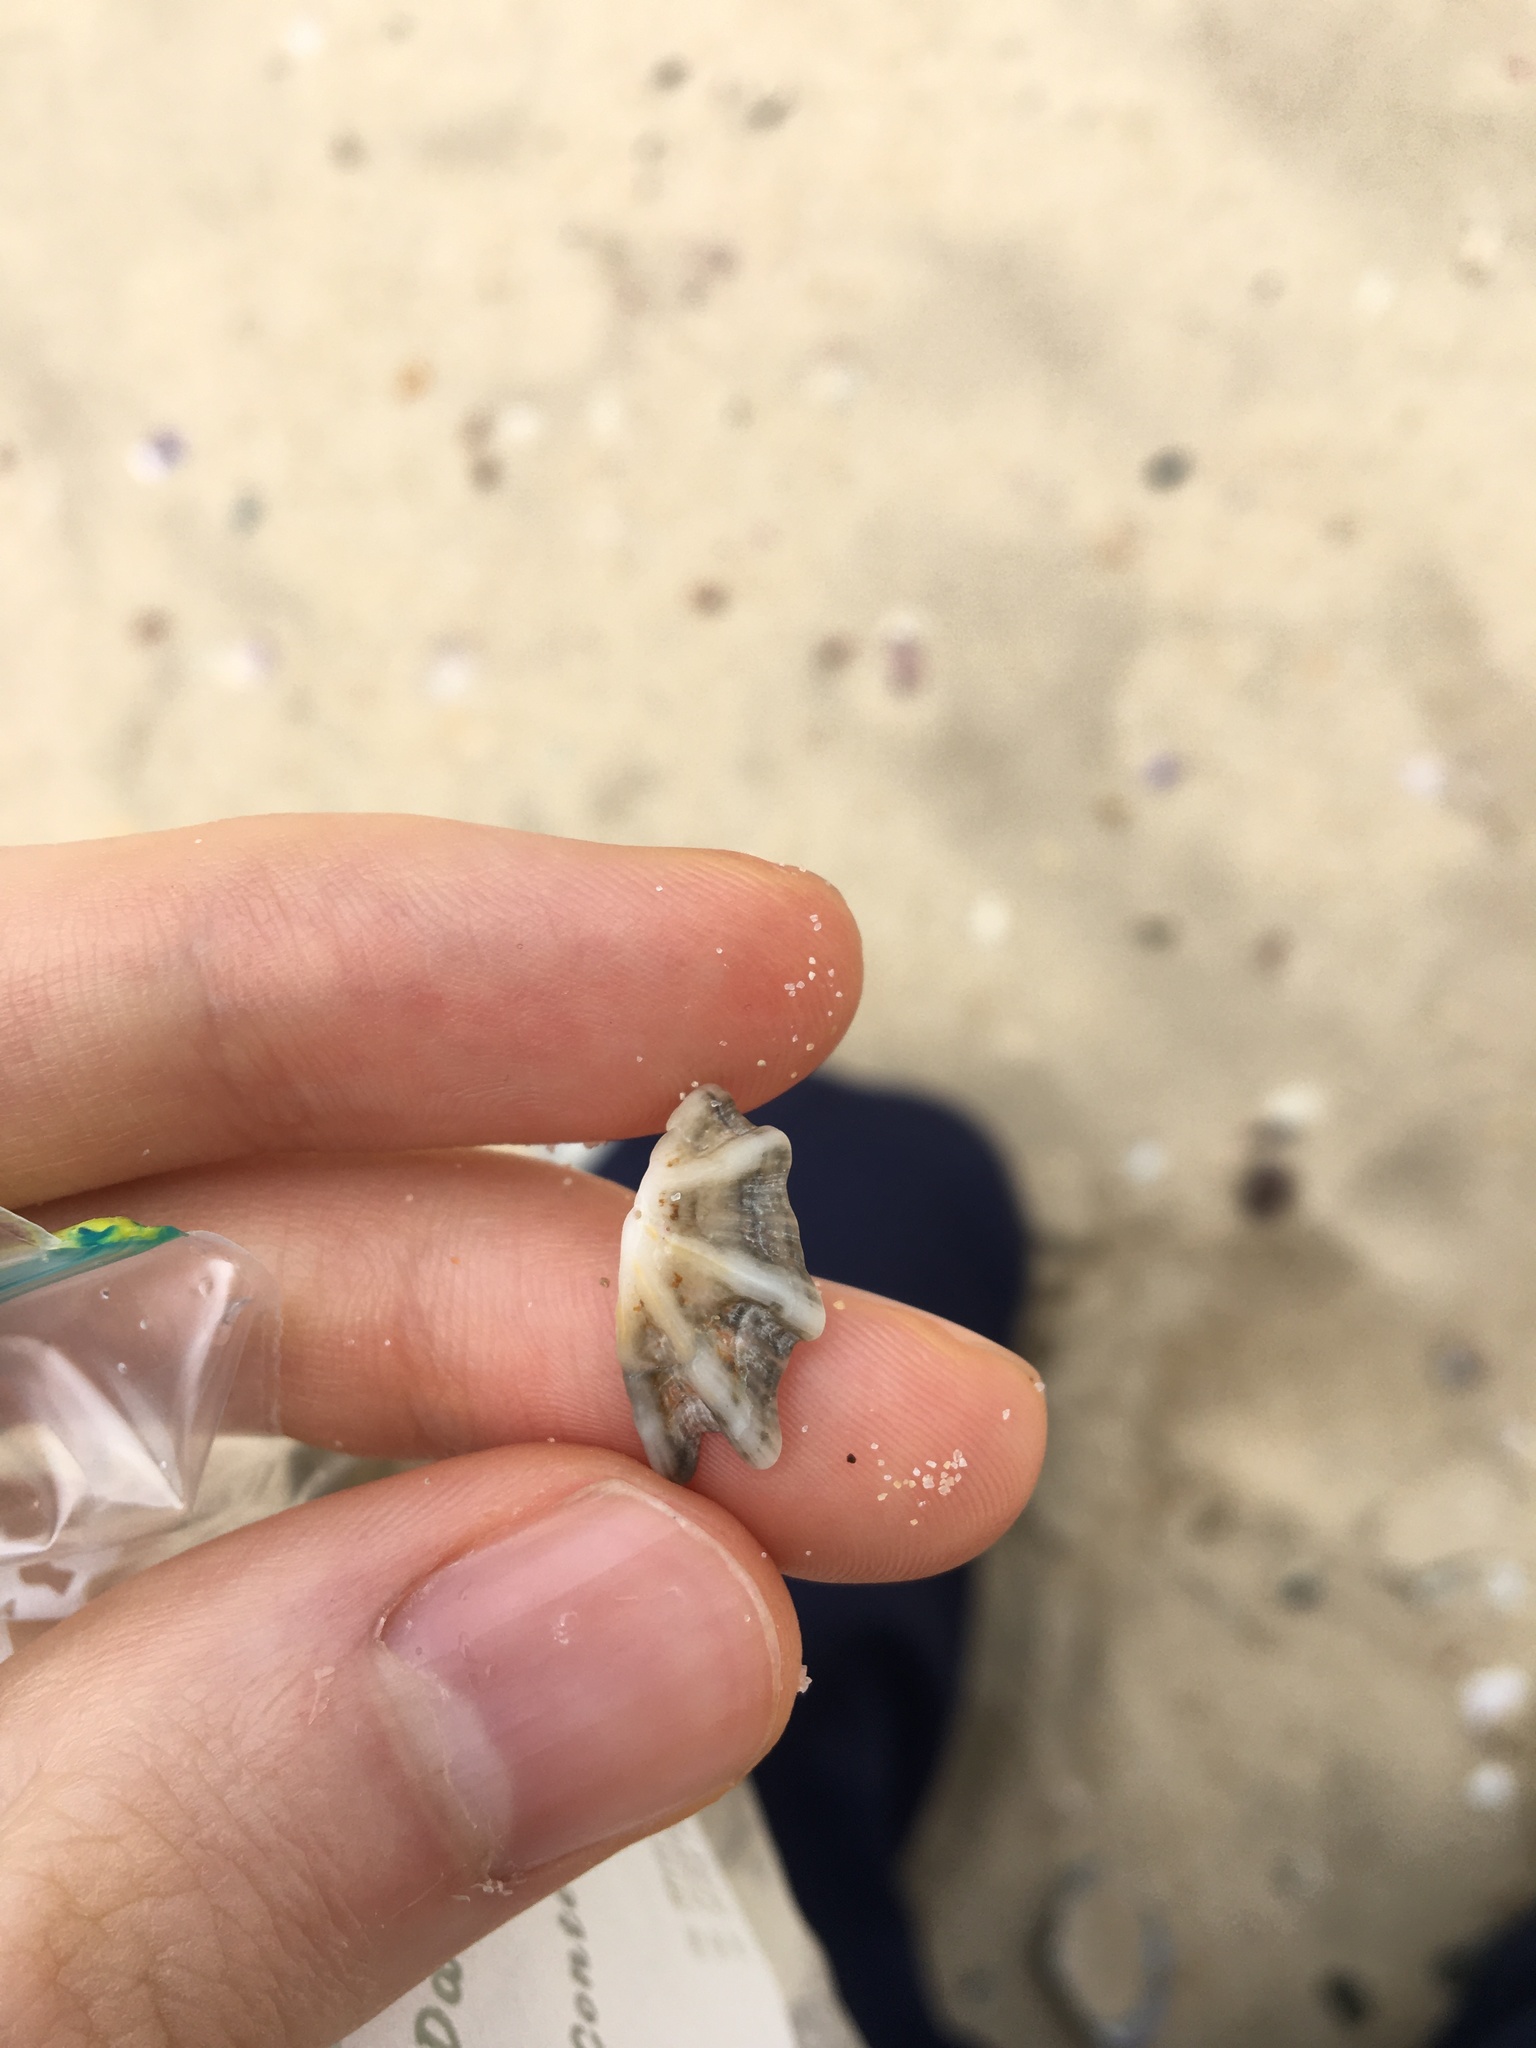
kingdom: Animalia
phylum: Mollusca
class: Gastropoda
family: Patellidae
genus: Scutellastra
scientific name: Scutellastra chapmani
